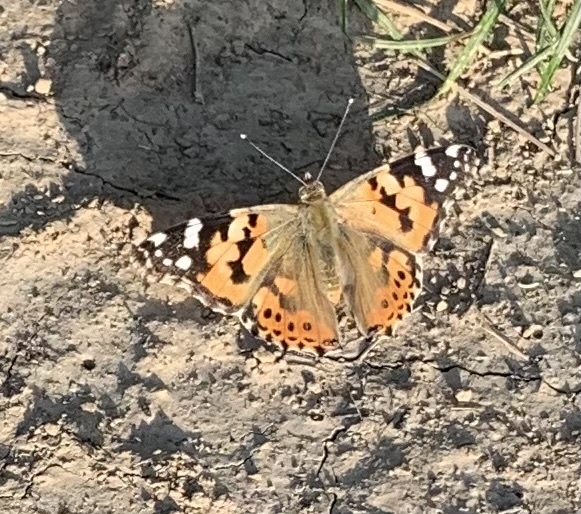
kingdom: Animalia
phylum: Arthropoda
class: Insecta
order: Lepidoptera
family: Nymphalidae
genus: Vanessa
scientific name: Vanessa cardui
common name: Painted lady
